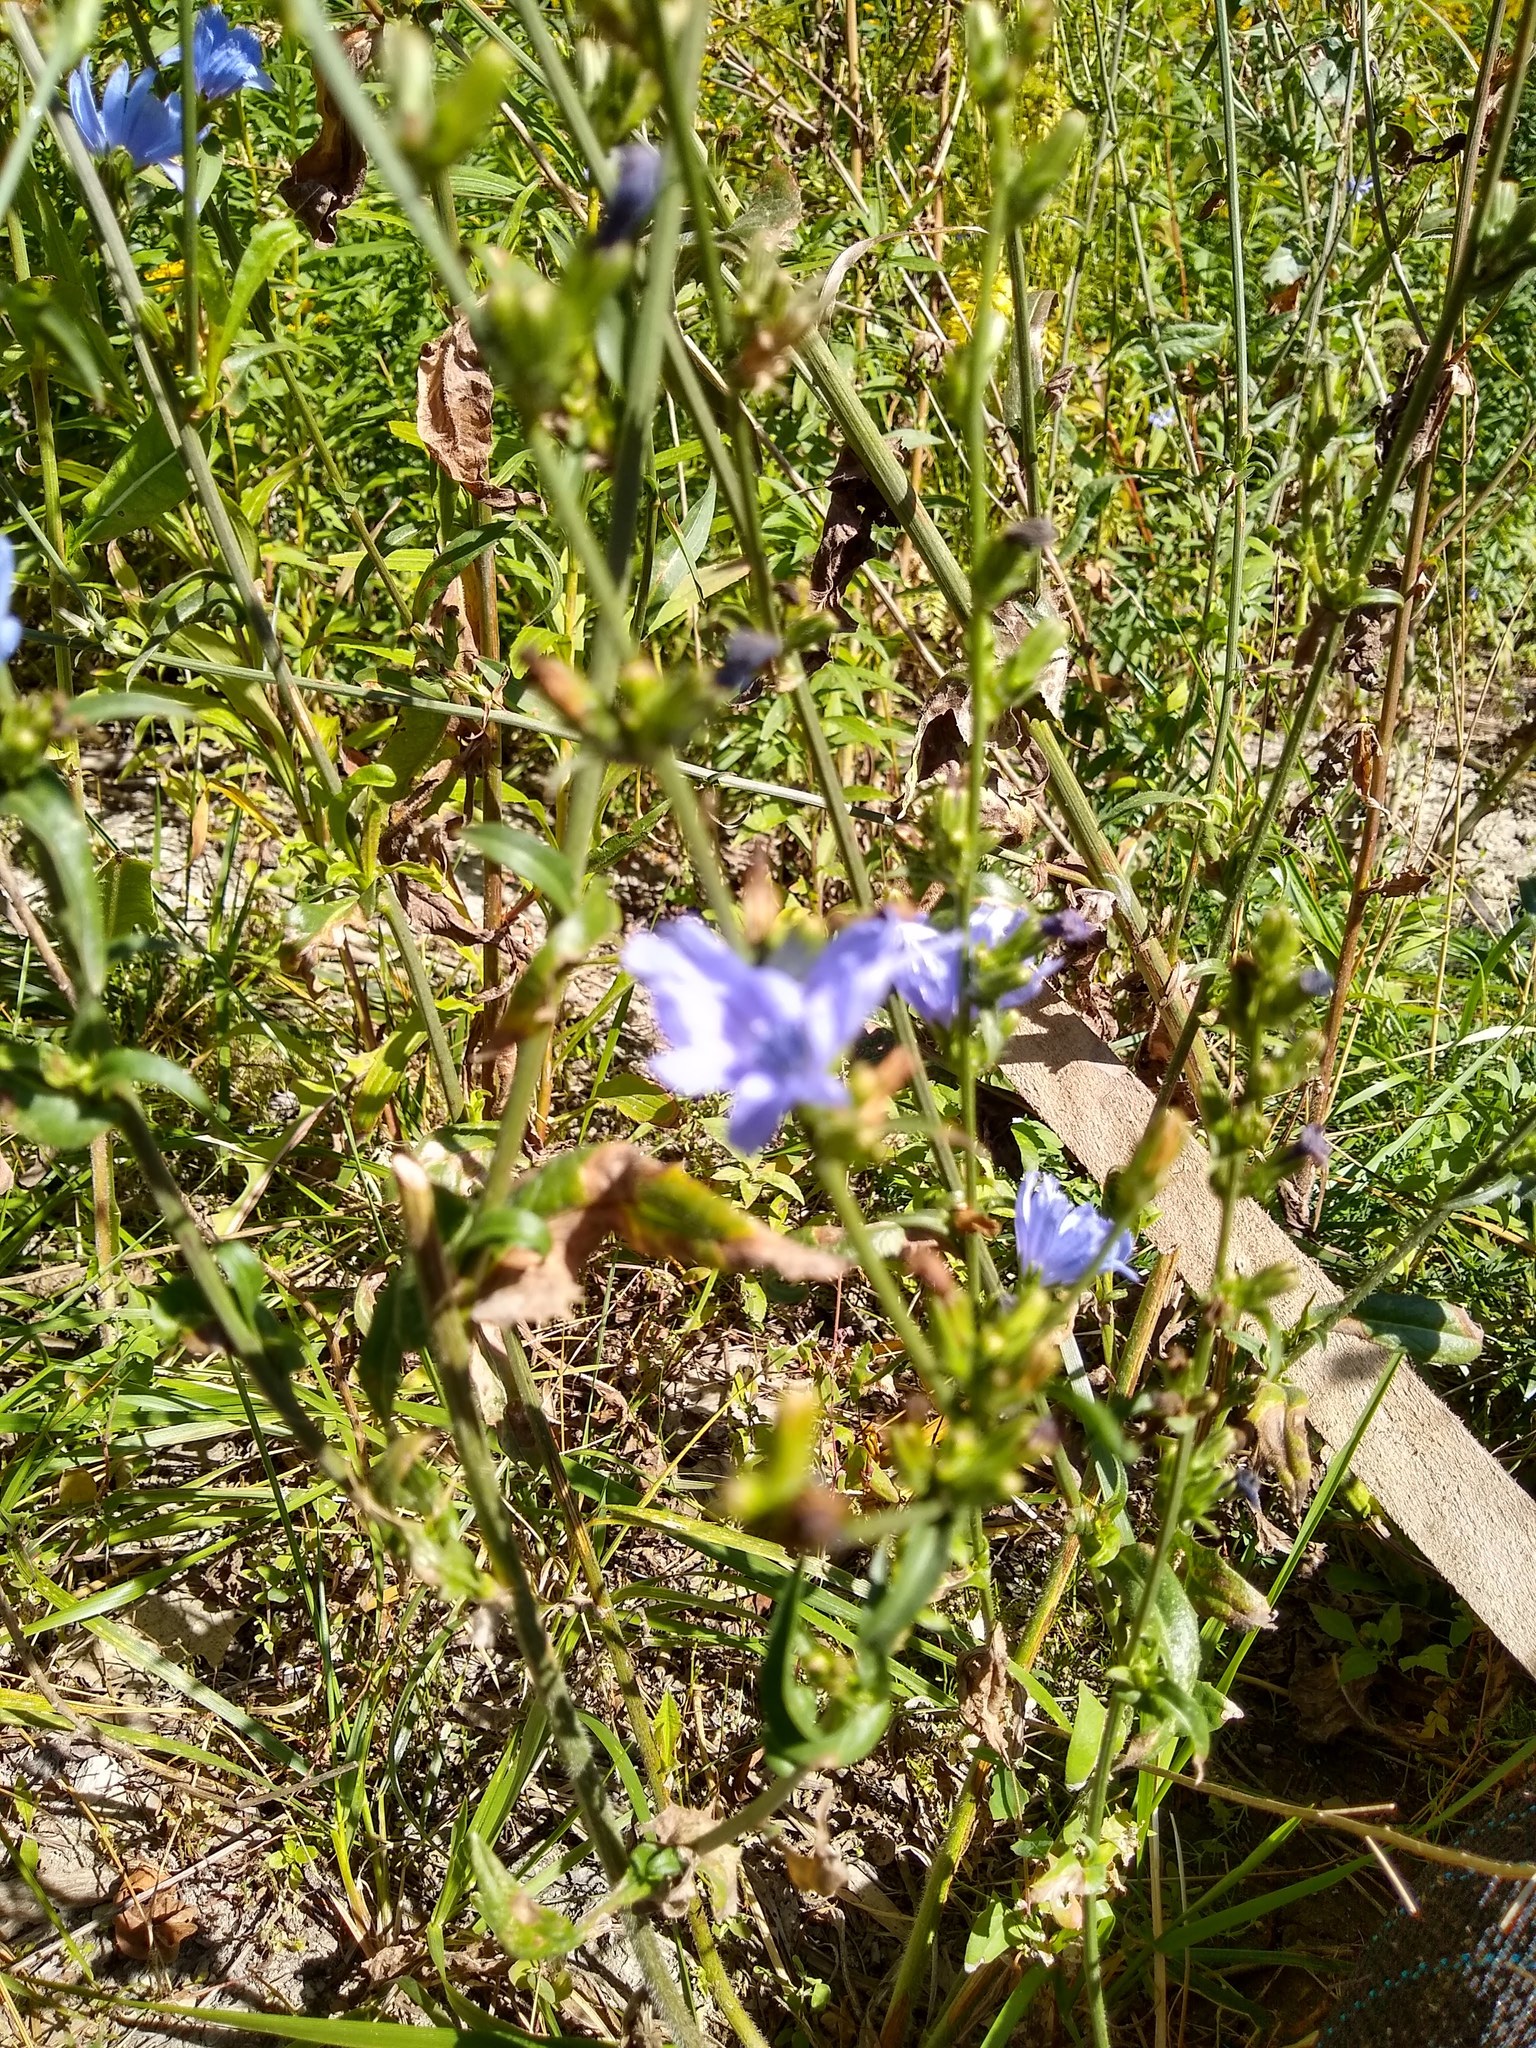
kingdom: Plantae
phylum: Tracheophyta
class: Magnoliopsida
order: Asterales
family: Asteraceae
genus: Cichorium
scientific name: Cichorium intybus
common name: Chicory
